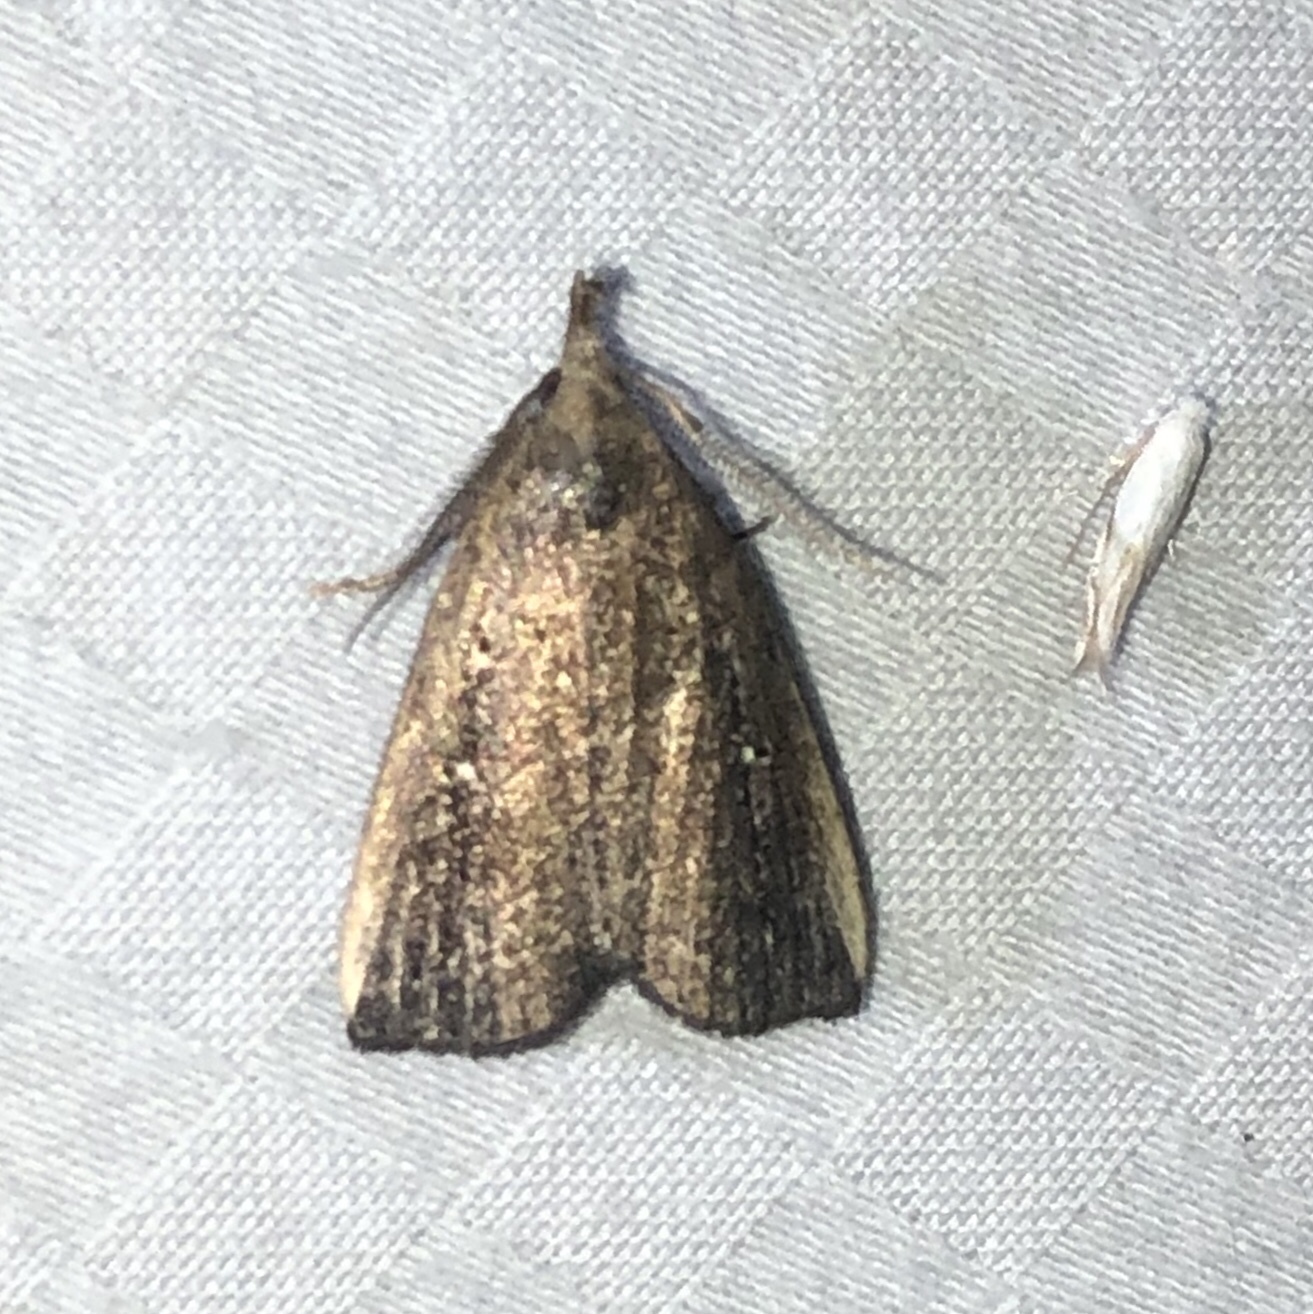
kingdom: Animalia
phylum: Arthropoda
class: Insecta
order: Lepidoptera
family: Erebidae
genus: Macrochilo
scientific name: Macrochilo orciferalis
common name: Bronzy owlet
